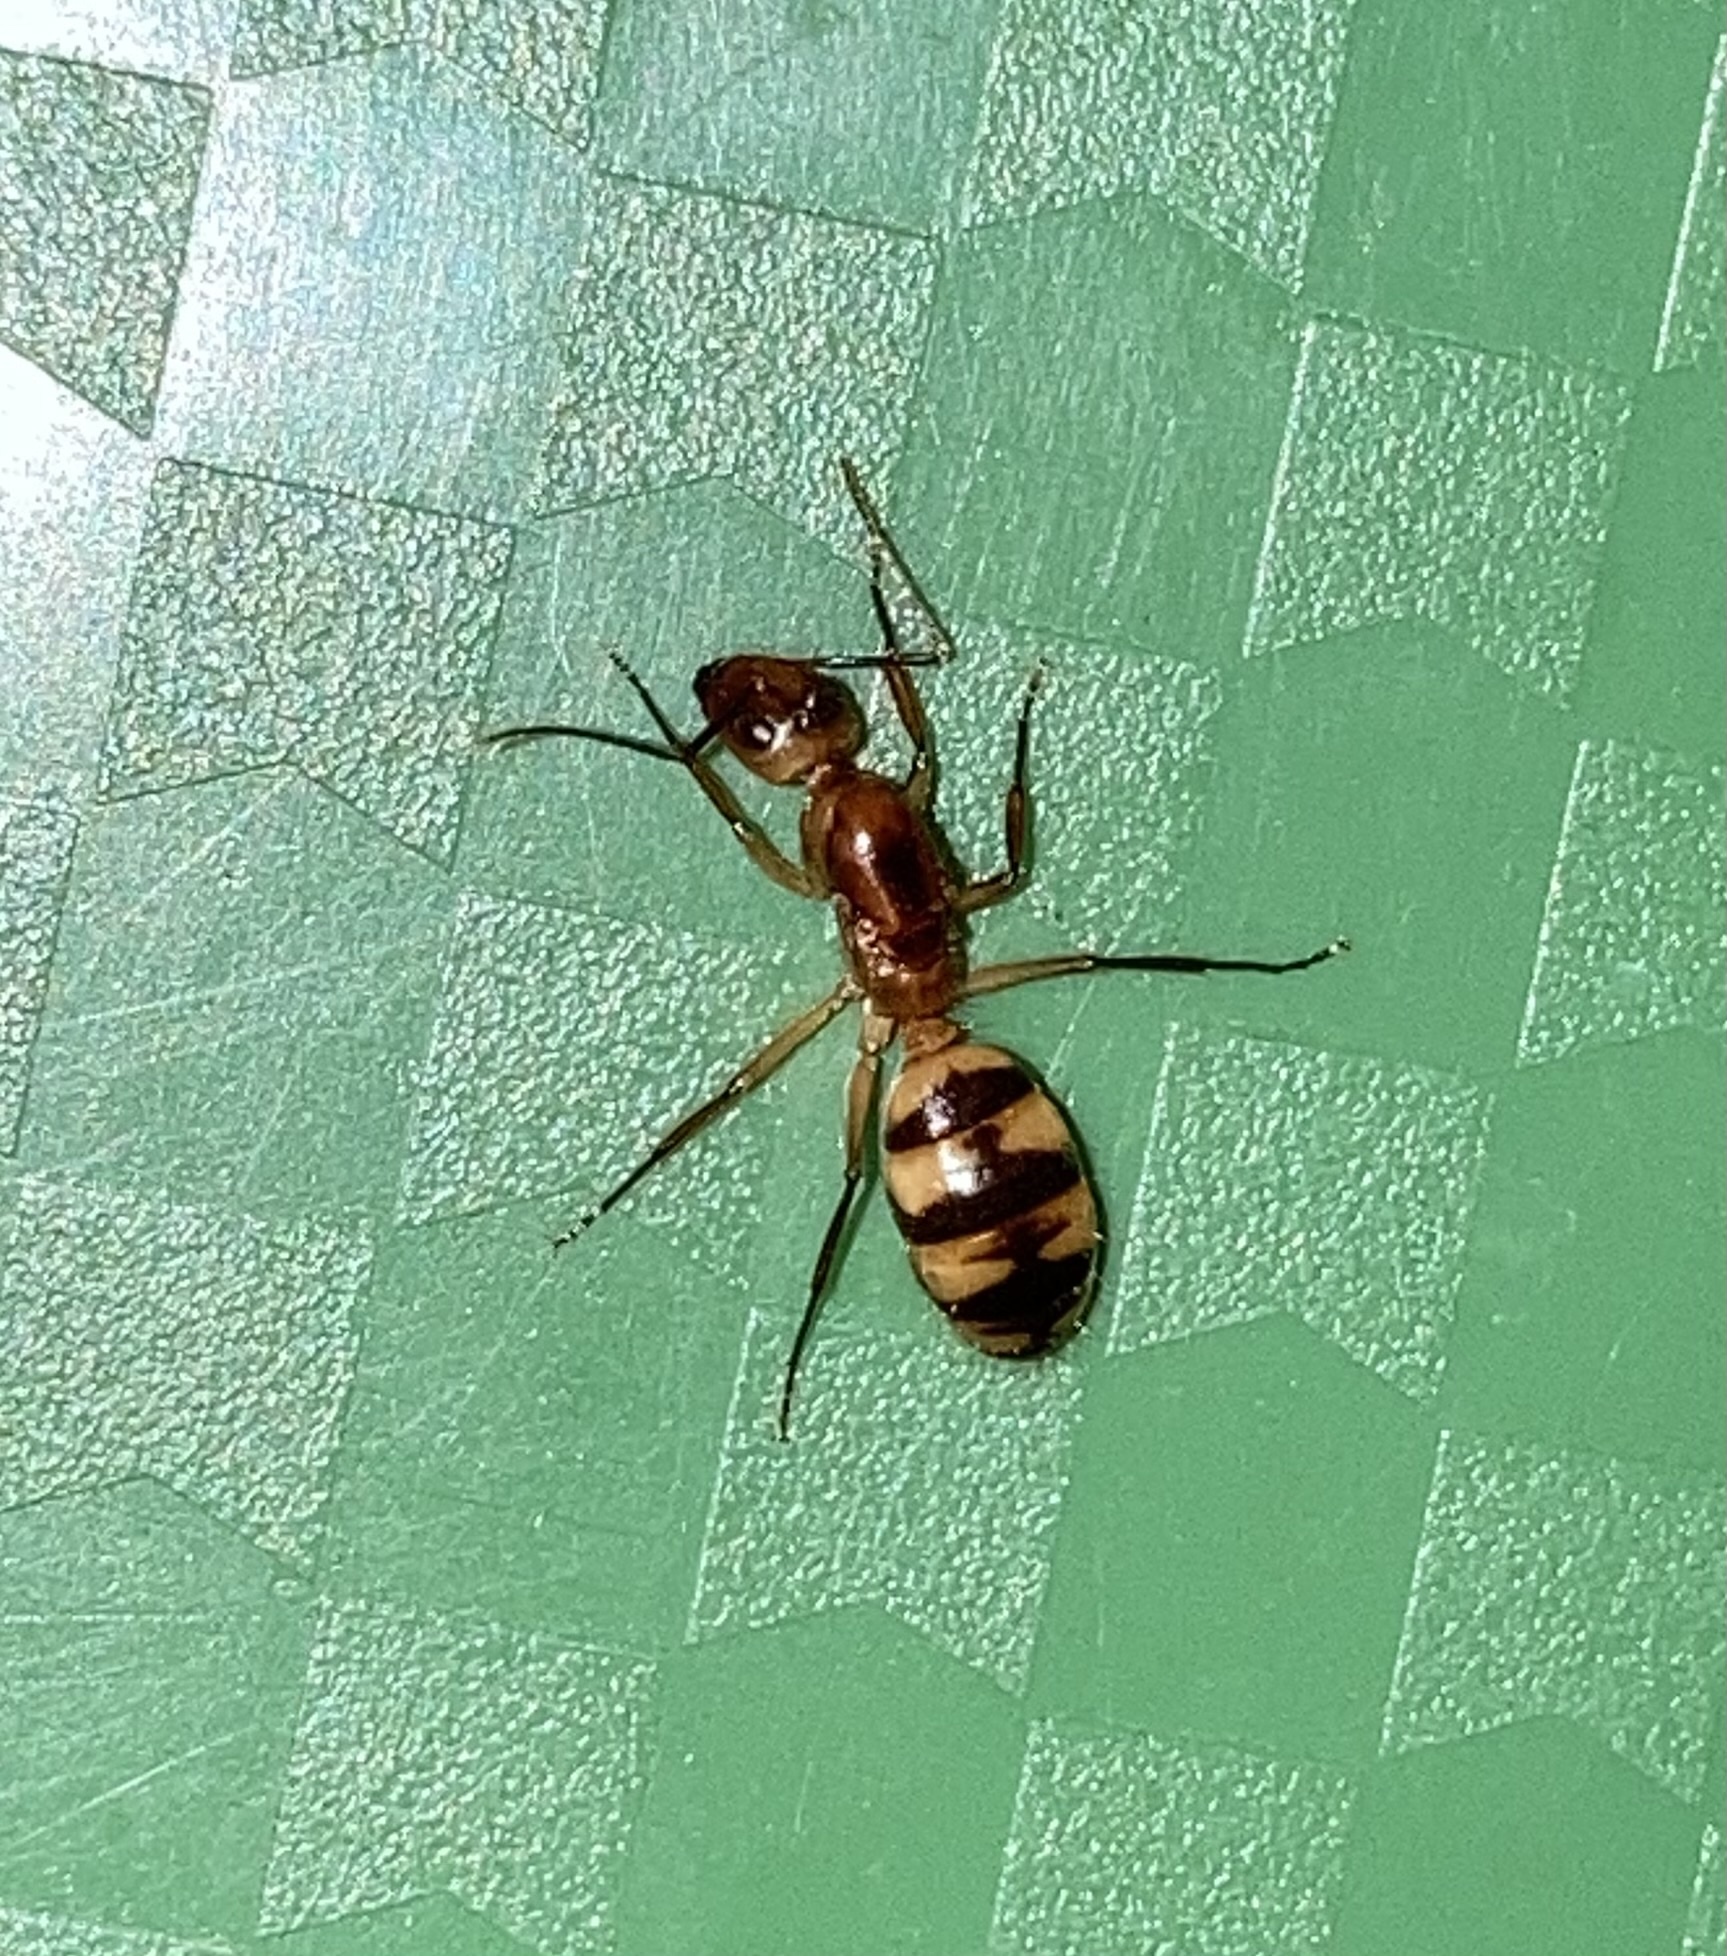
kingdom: Animalia
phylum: Arthropoda
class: Insecta
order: Hymenoptera
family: Formicidae
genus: Camponotus
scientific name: Camponotus
